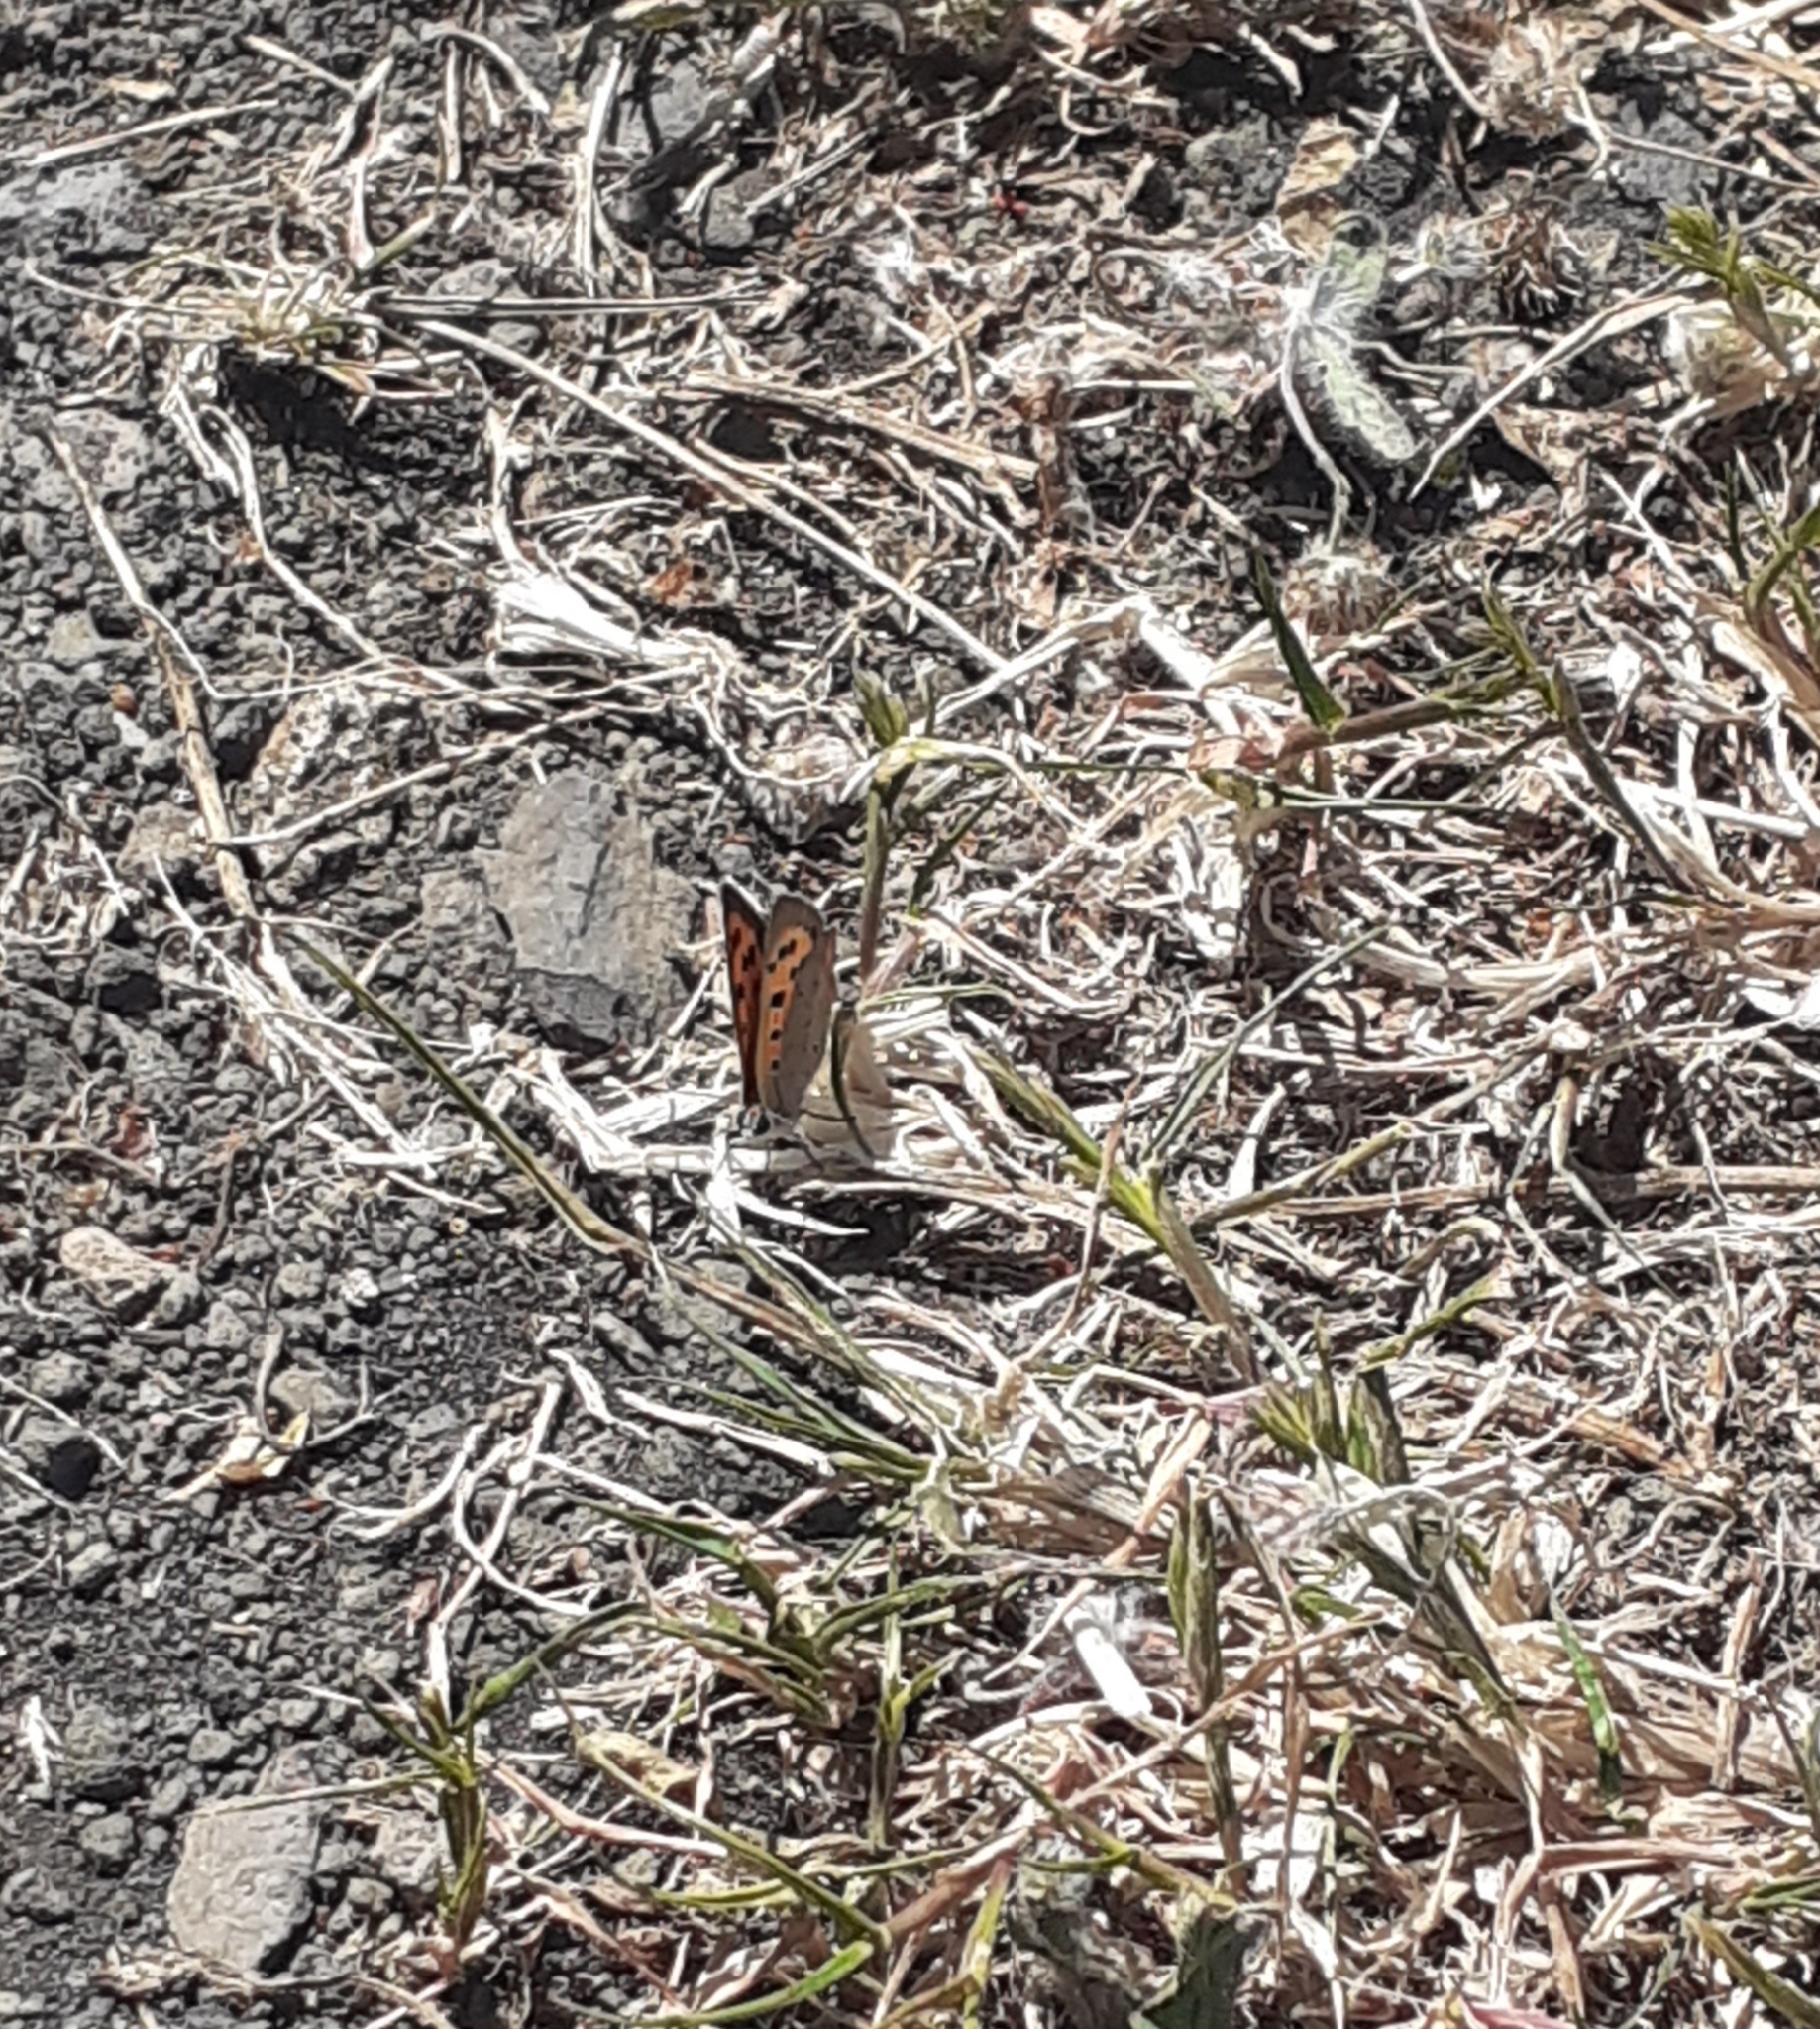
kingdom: Animalia
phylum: Arthropoda
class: Insecta
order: Lepidoptera
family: Lycaenidae
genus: Lycaena
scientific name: Lycaena phlaeas
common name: Small copper
